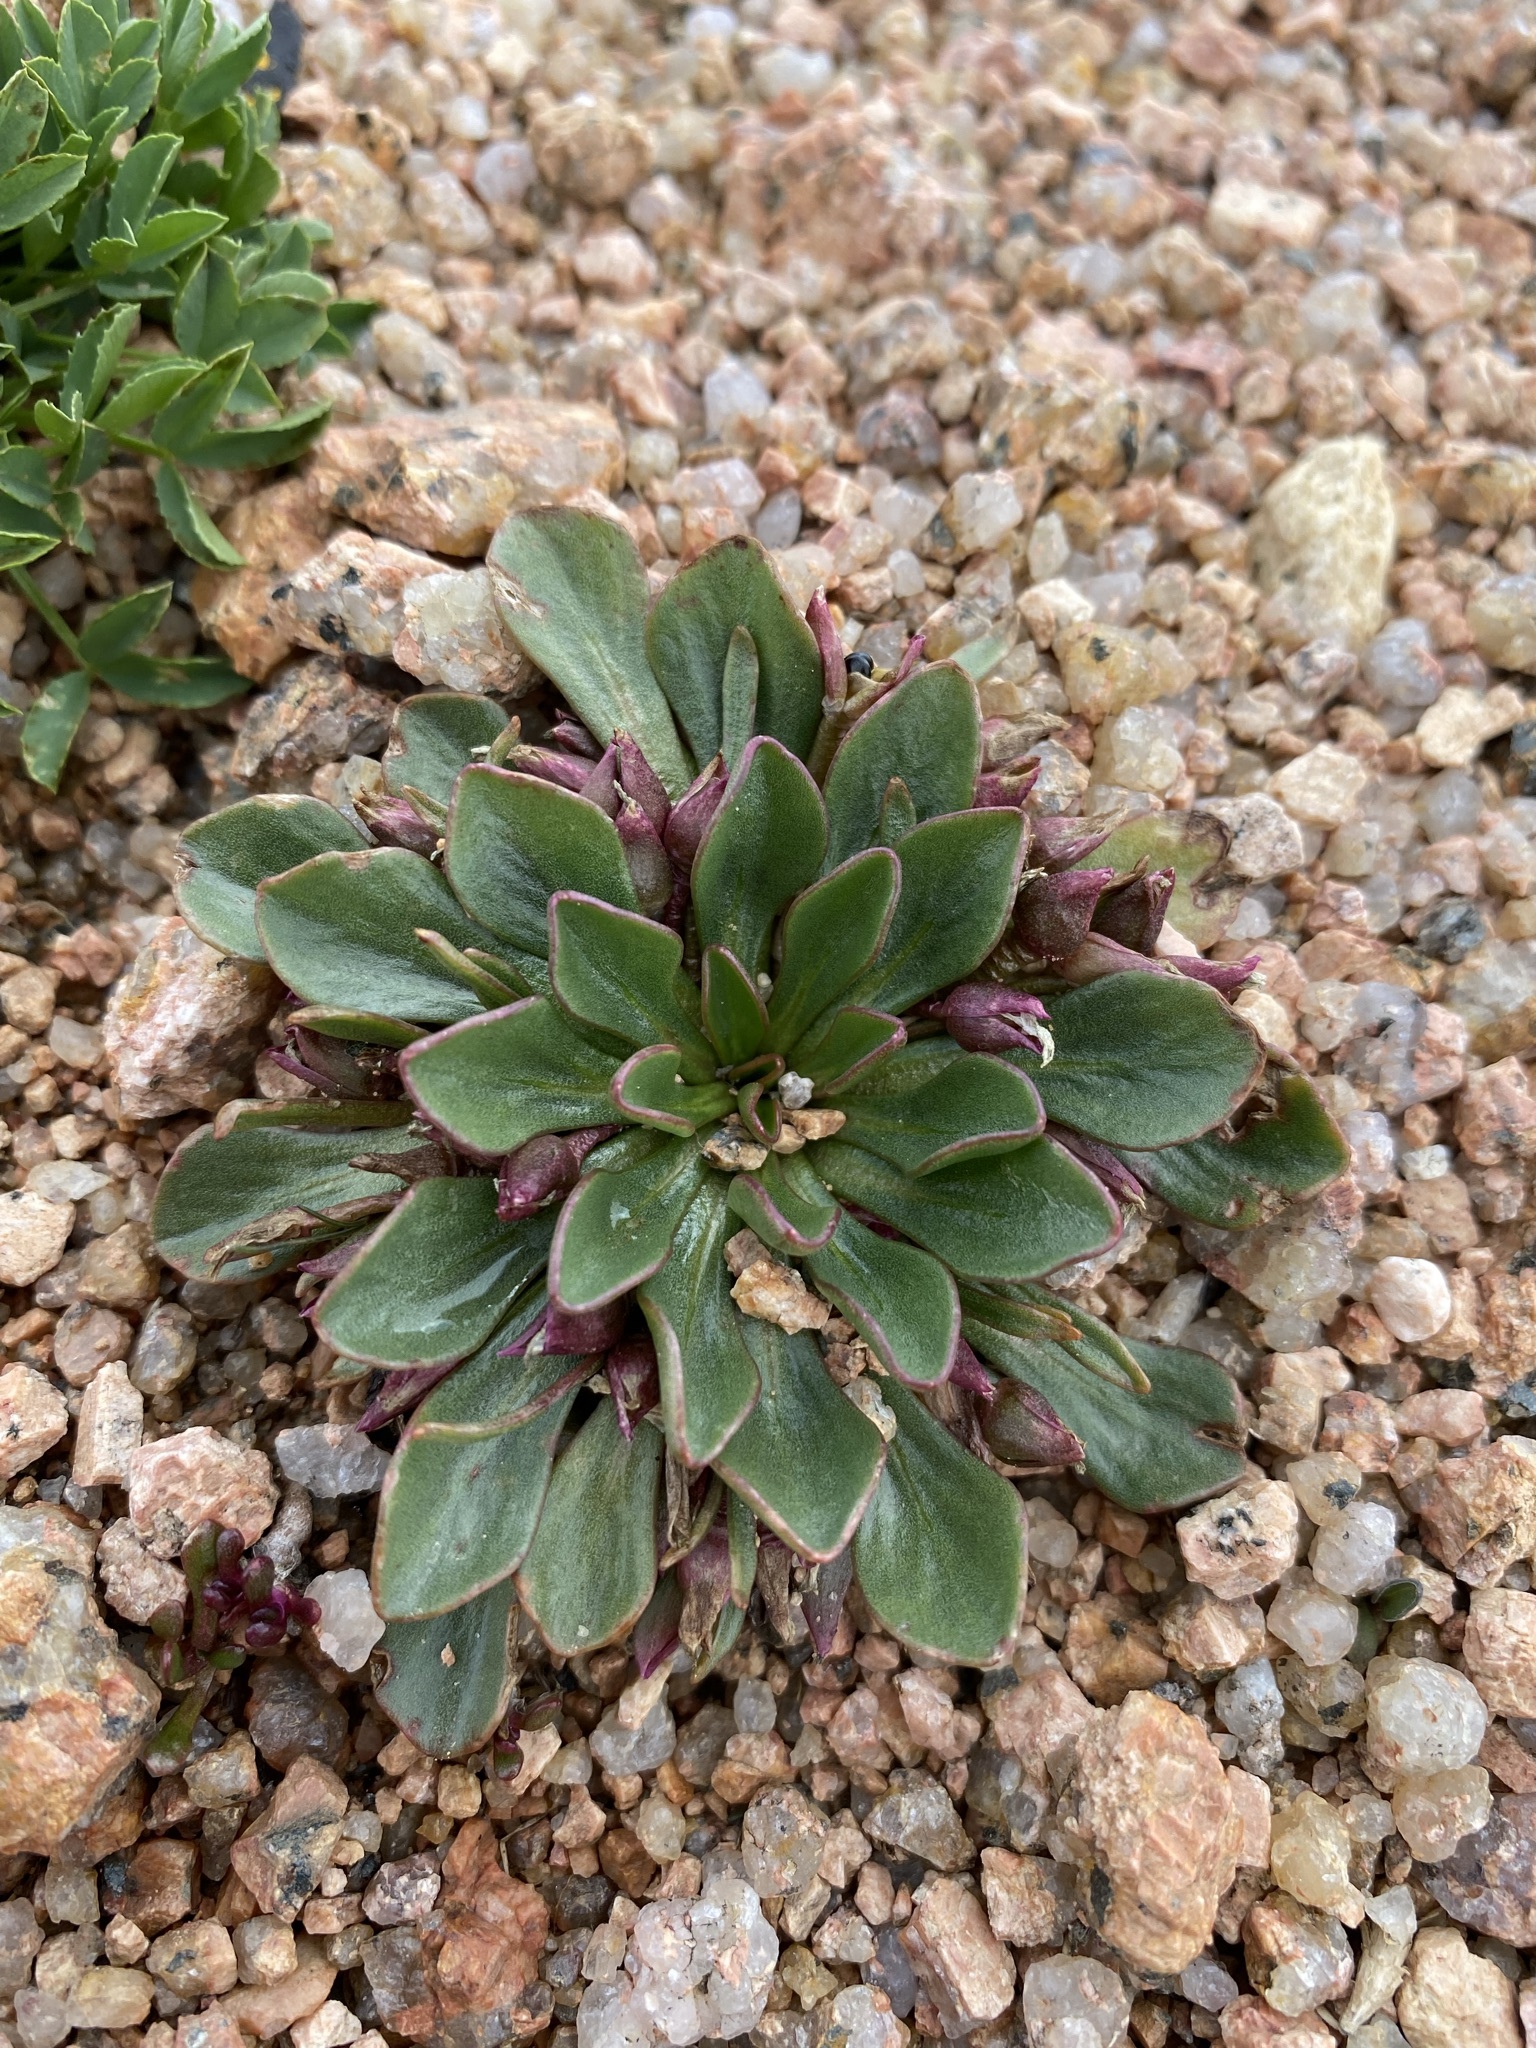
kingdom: Plantae
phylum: Tracheophyta
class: Magnoliopsida
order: Caryophyllales
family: Montiaceae
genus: Claytonia
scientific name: Claytonia megarhiza
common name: Alpine spring beauty
